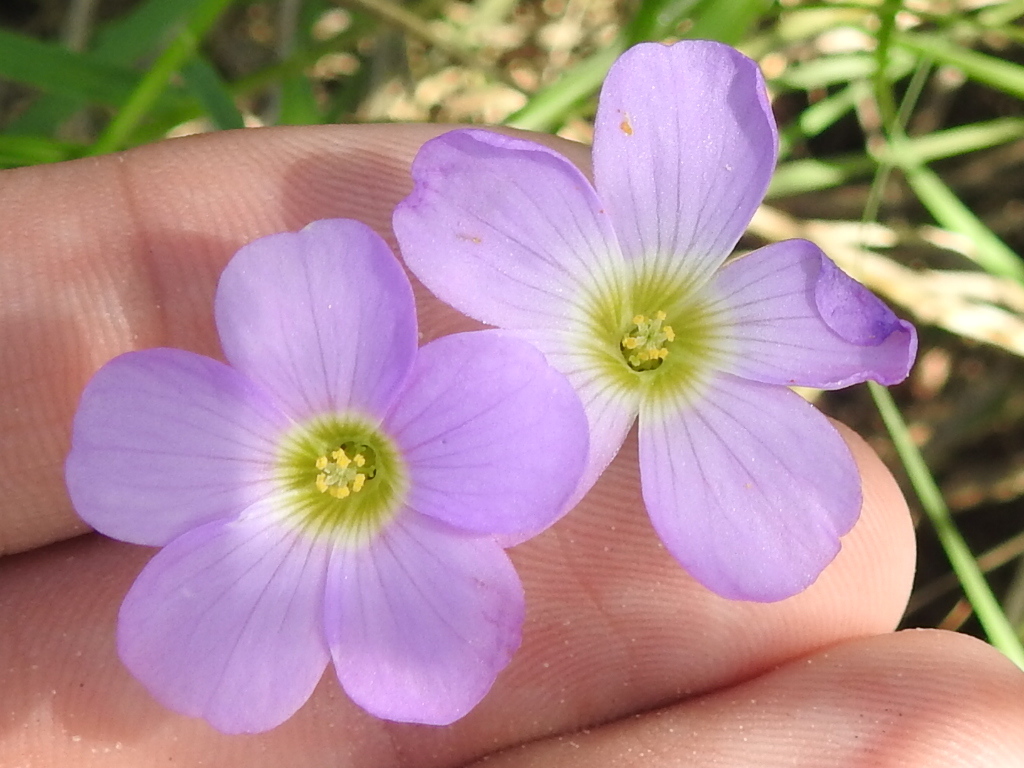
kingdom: Plantae
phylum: Tracheophyta
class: Magnoliopsida
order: Oxalidales
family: Oxalidaceae
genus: Oxalis
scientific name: Oxalis drummondii
